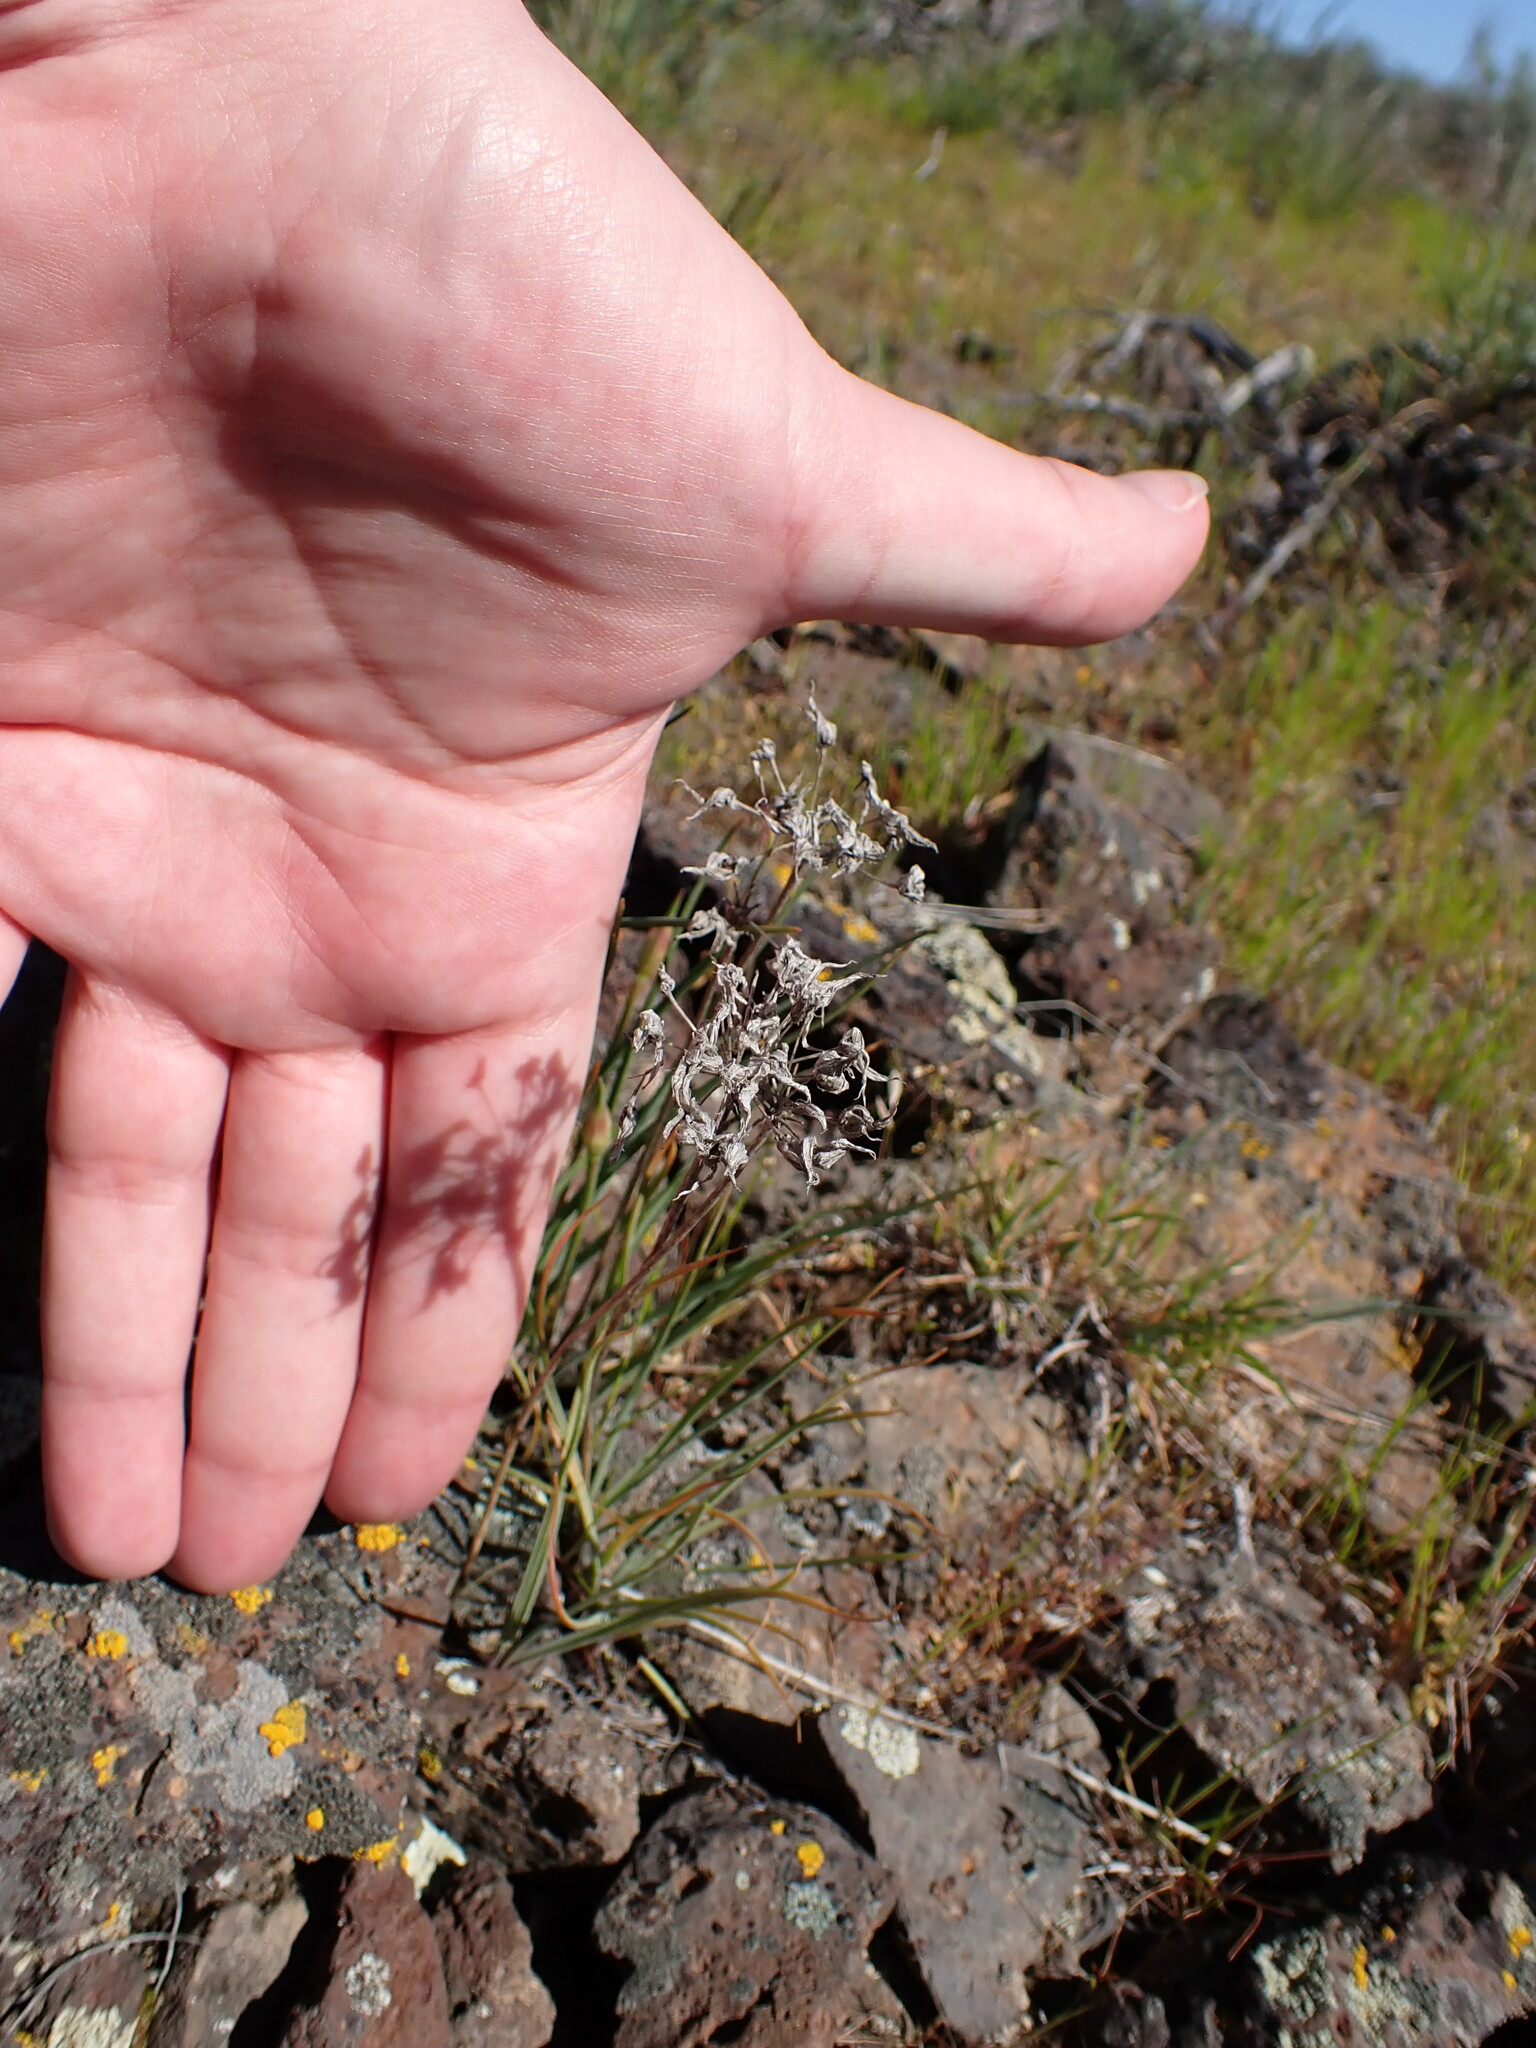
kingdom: Plantae
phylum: Tracheophyta
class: Liliopsida
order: Asparagales
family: Amaryllidaceae
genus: Allium
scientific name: Allium acuminatum
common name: Hooker's onion
